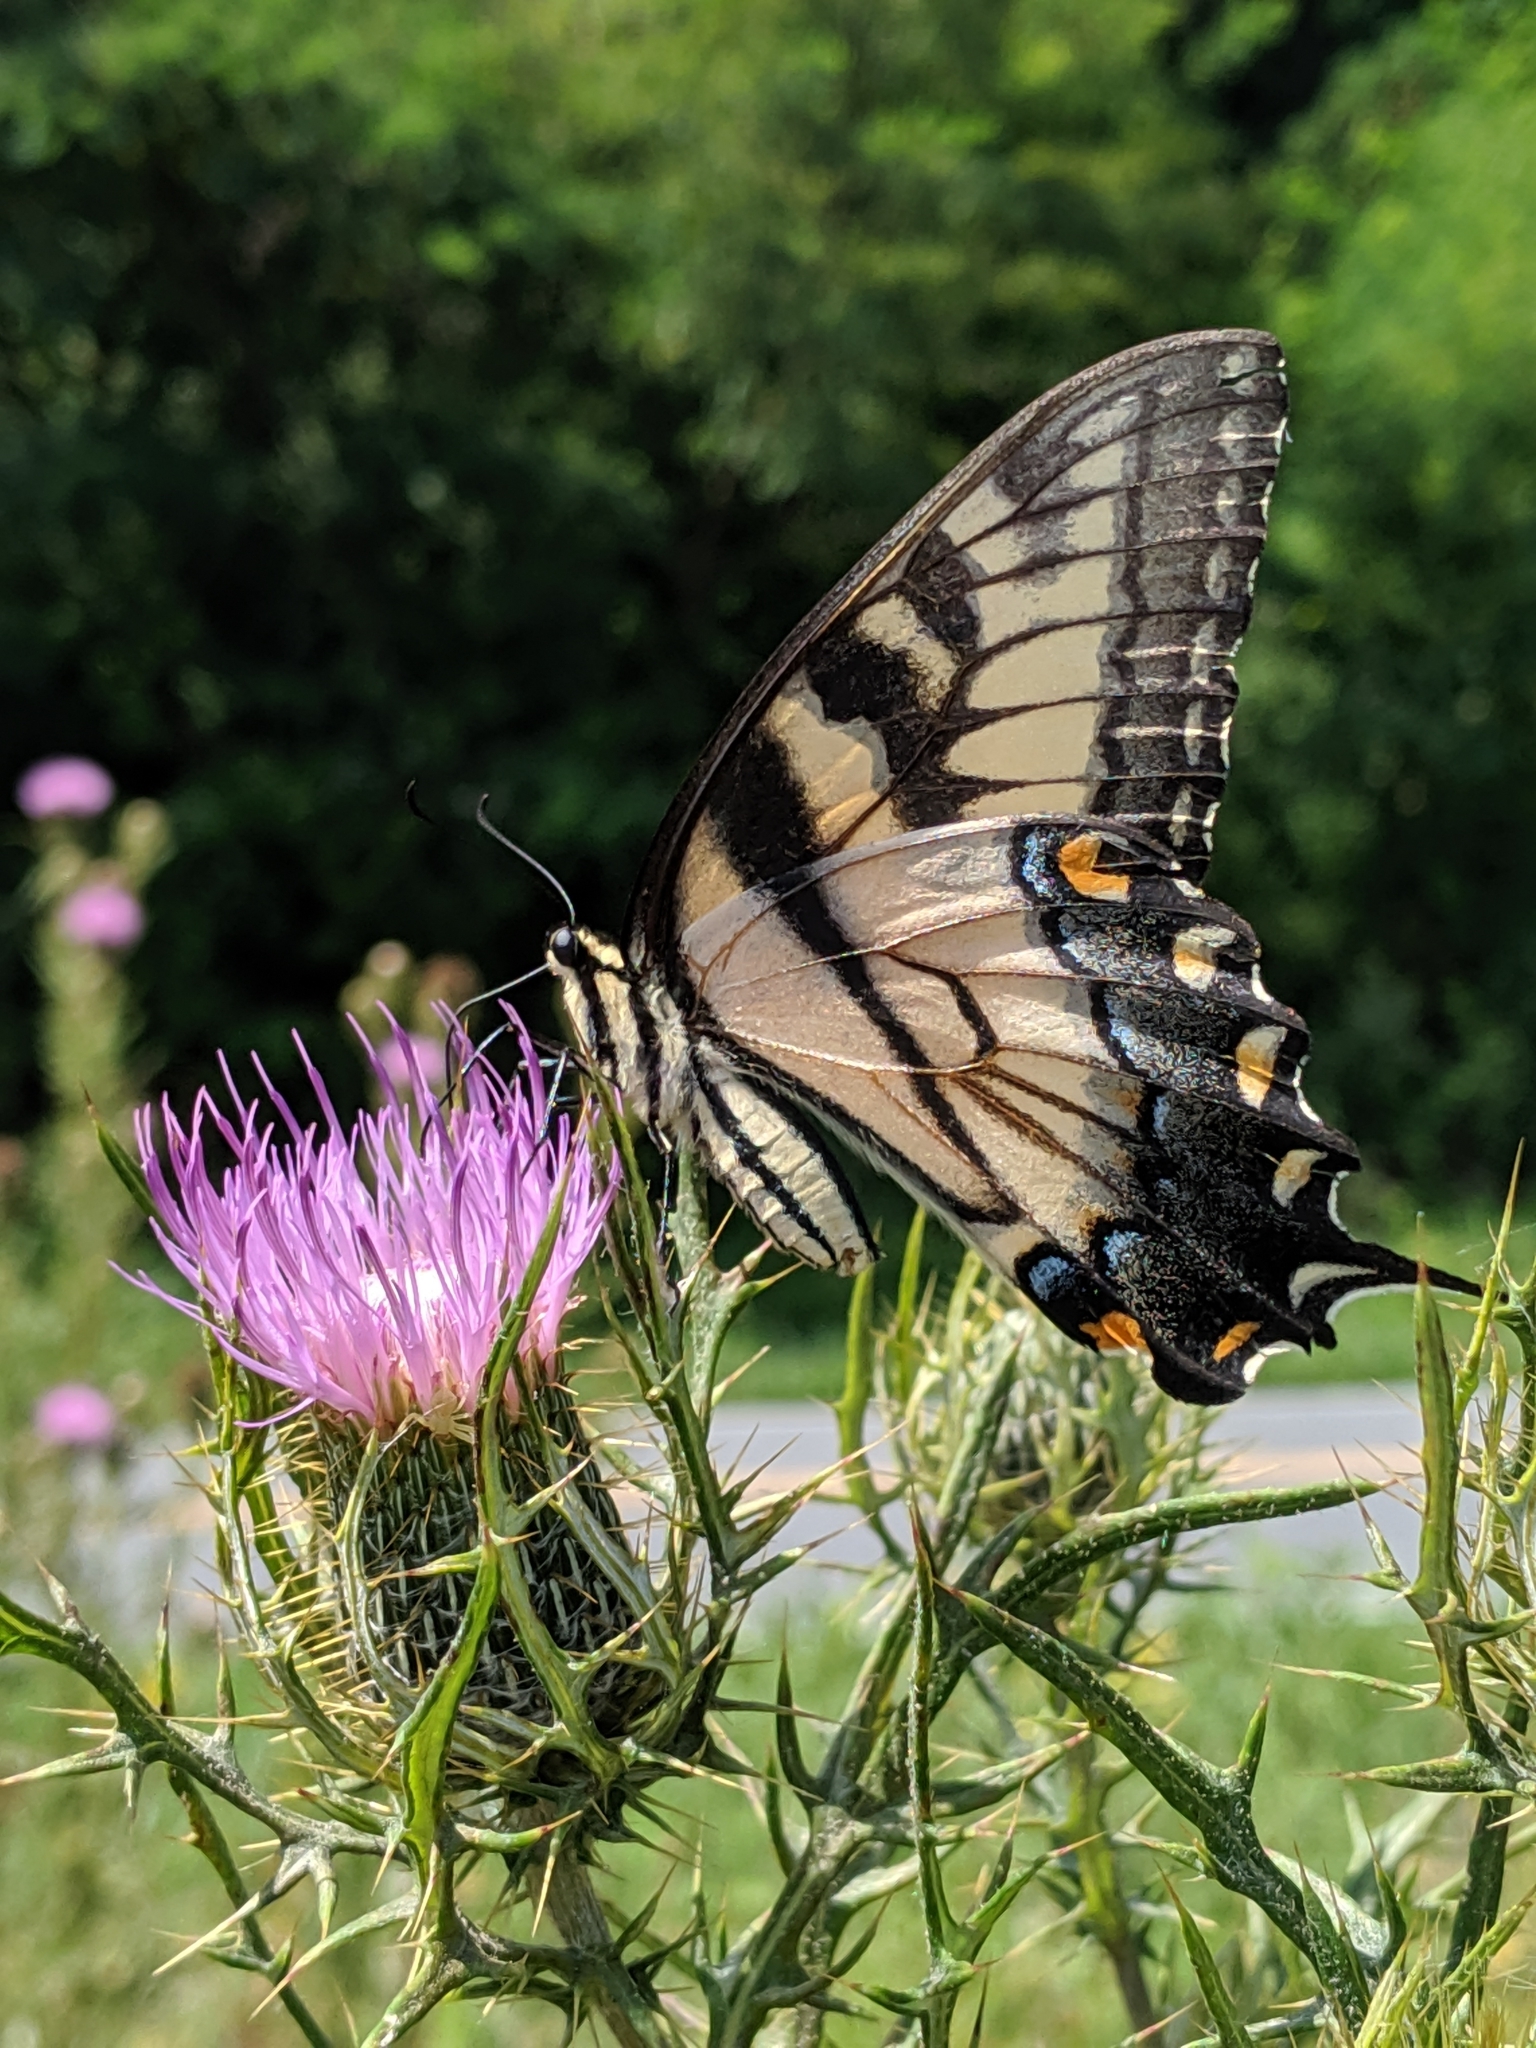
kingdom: Animalia
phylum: Arthropoda
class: Insecta
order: Lepidoptera
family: Papilionidae
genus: Papilio
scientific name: Papilio glaucus
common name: Tiger swallowtail
